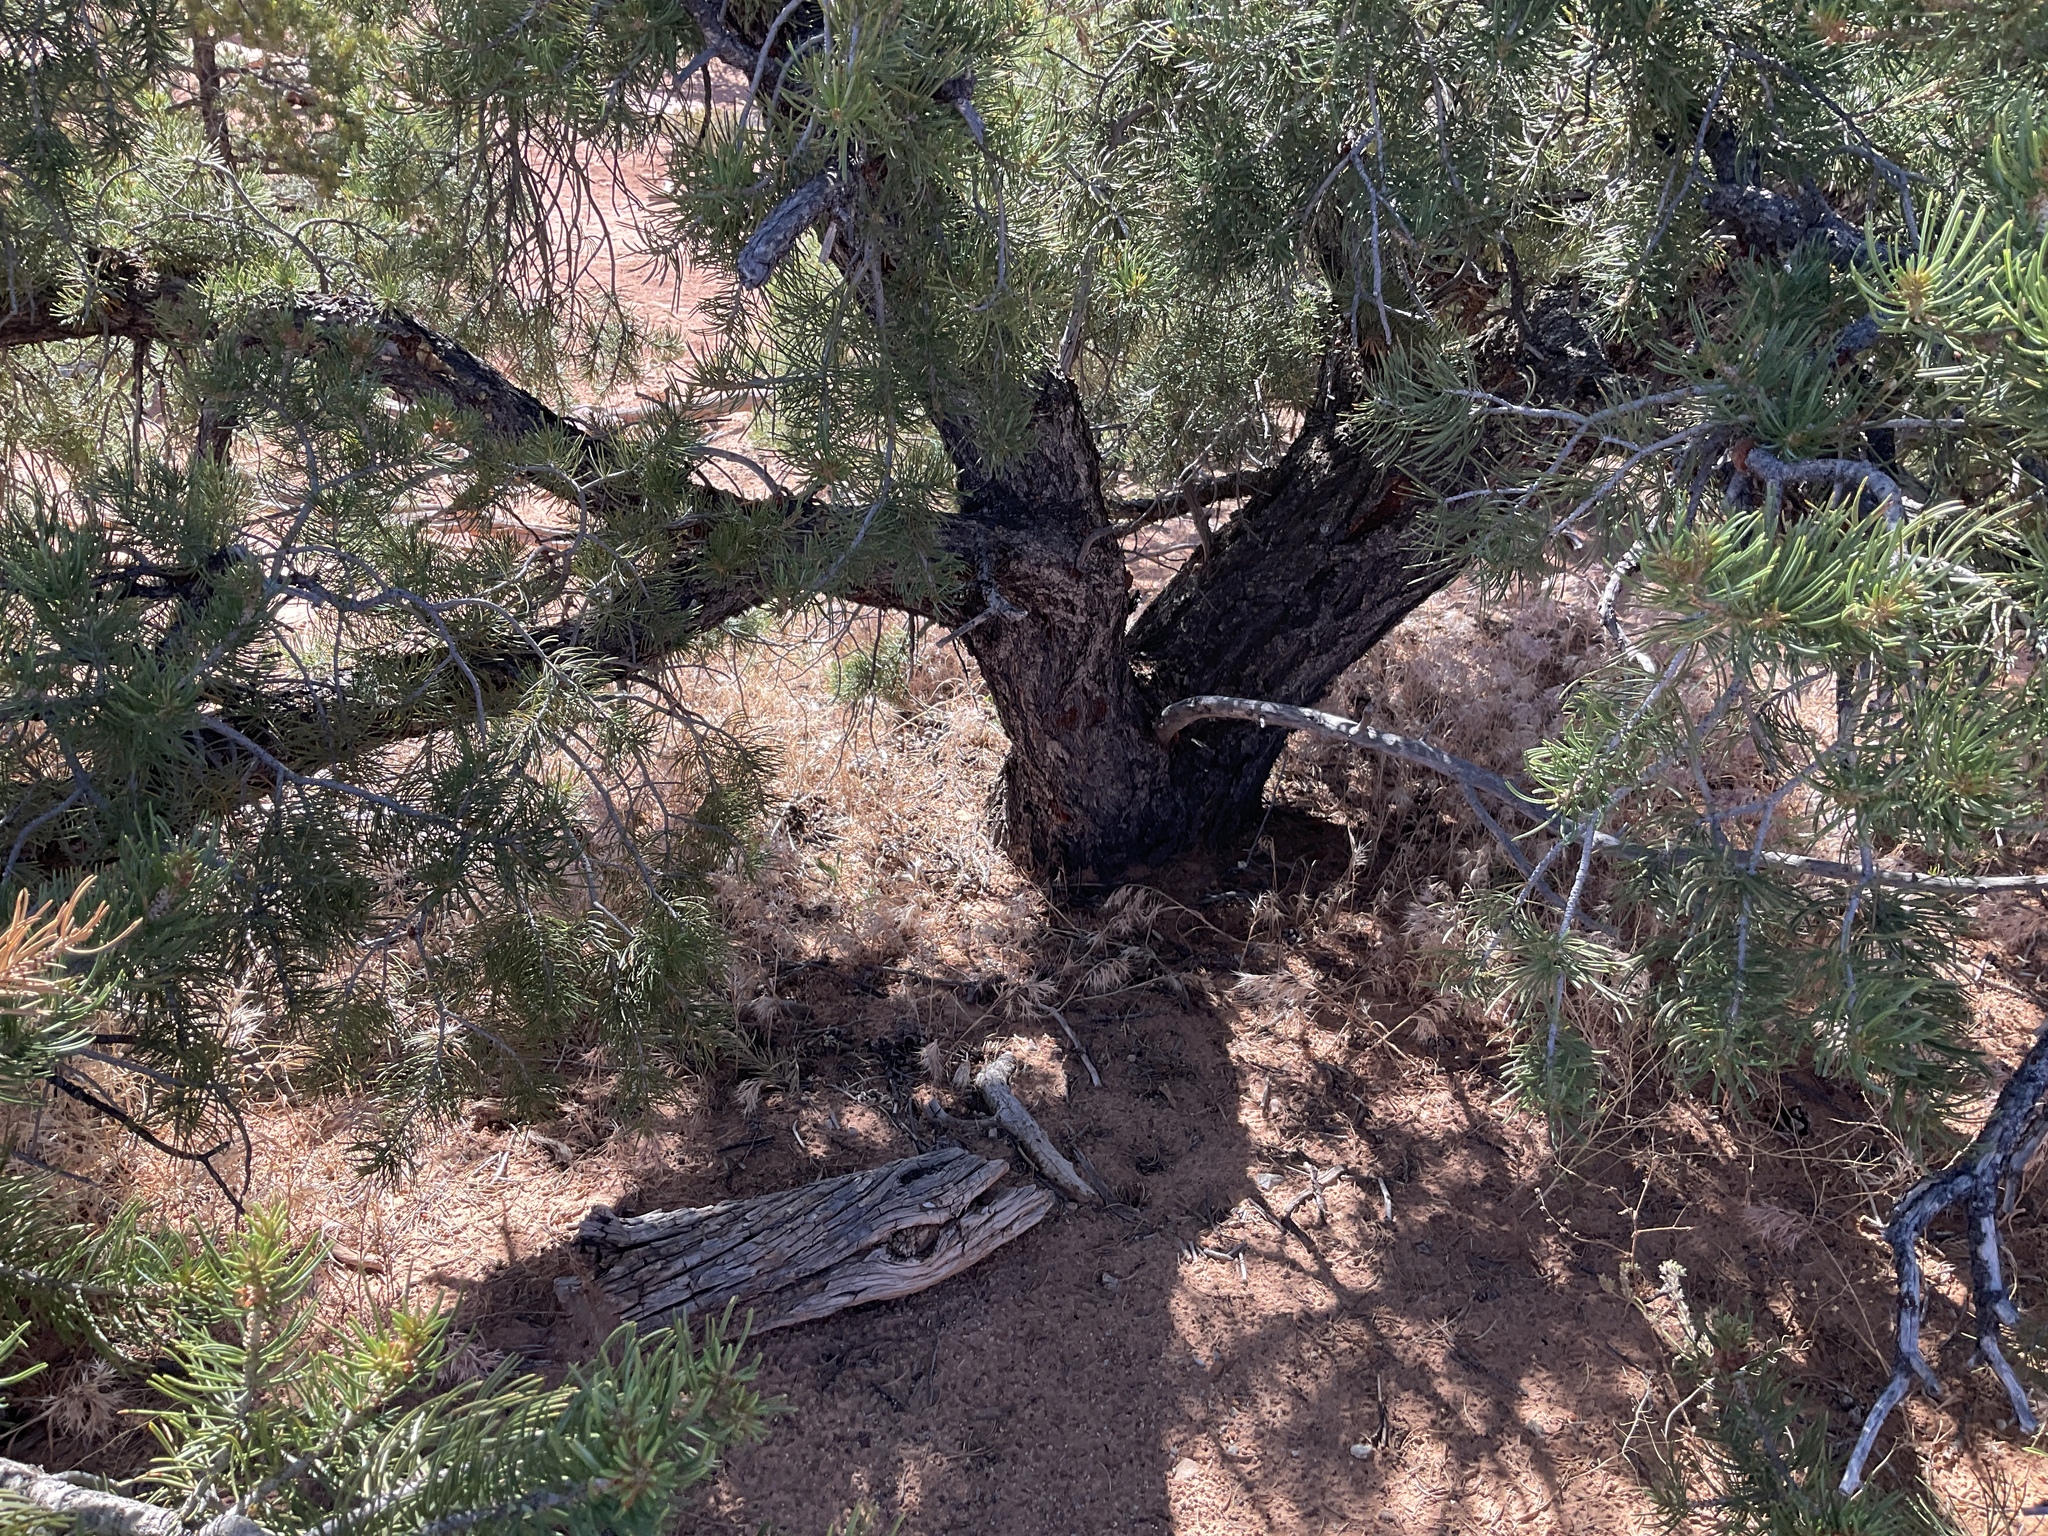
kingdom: Plantae
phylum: Tracheophyta
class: Pinopsida
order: Pinales
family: Pinaceae
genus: Pinus
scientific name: Pinus edulis
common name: Colorado pinyon
